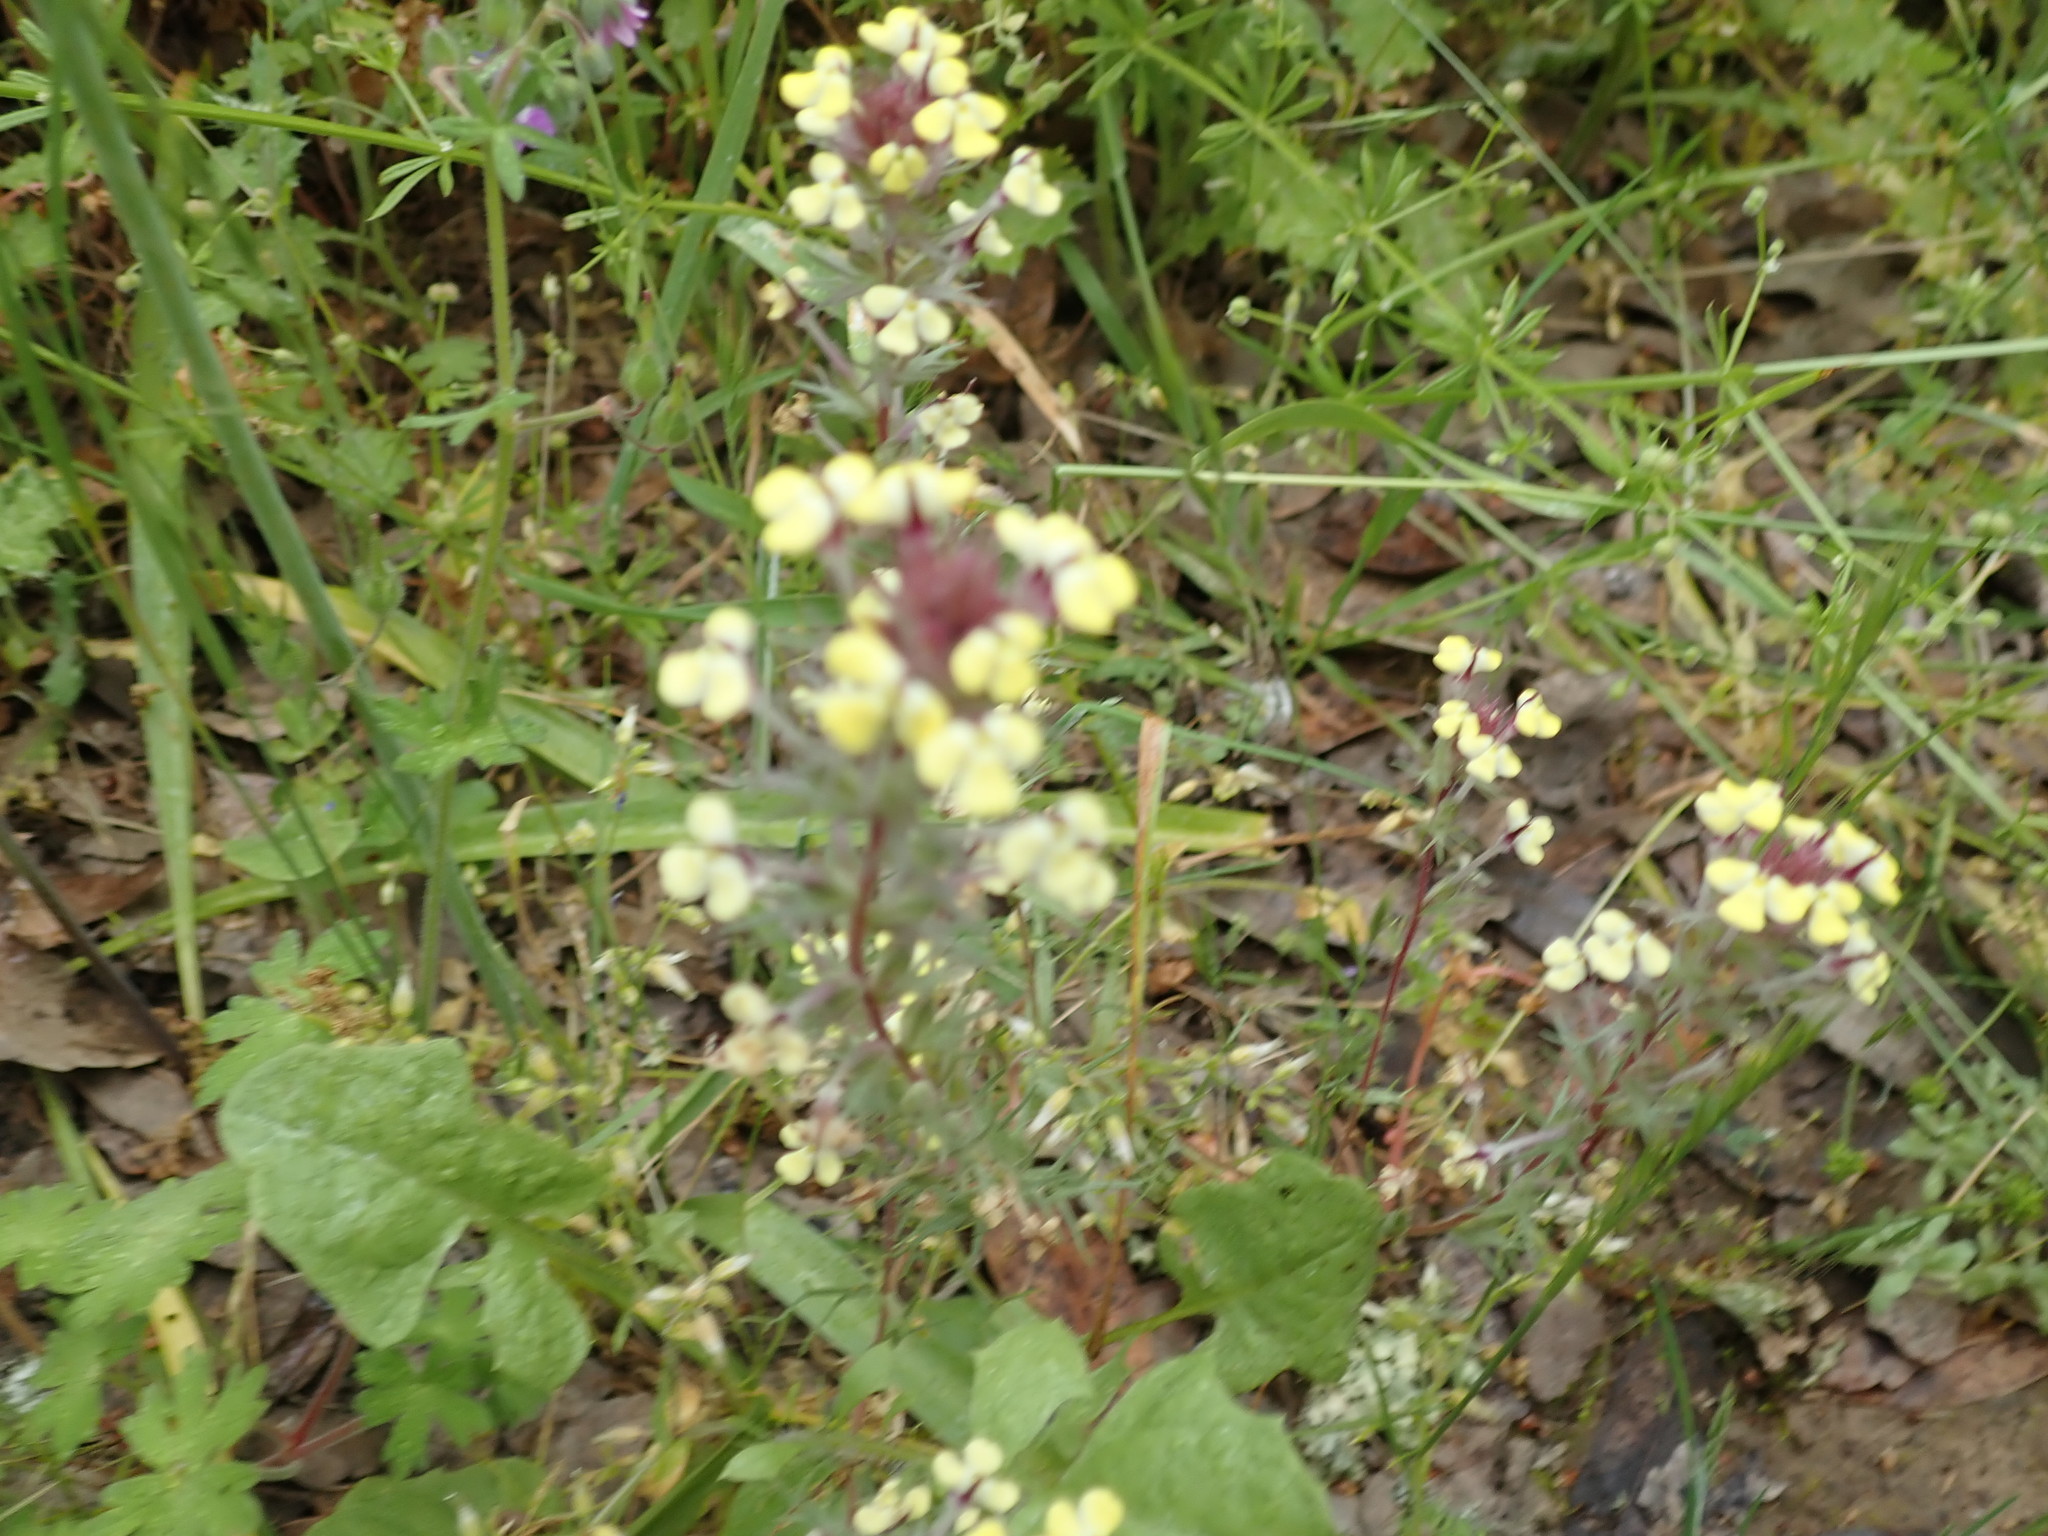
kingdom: Plantae
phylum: Tracheophyta
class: Magnoliopsida
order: Lamiales
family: Orobanchaceae
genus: Triphysaria
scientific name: Triphysaria eriantha
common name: Johnny-tuck
